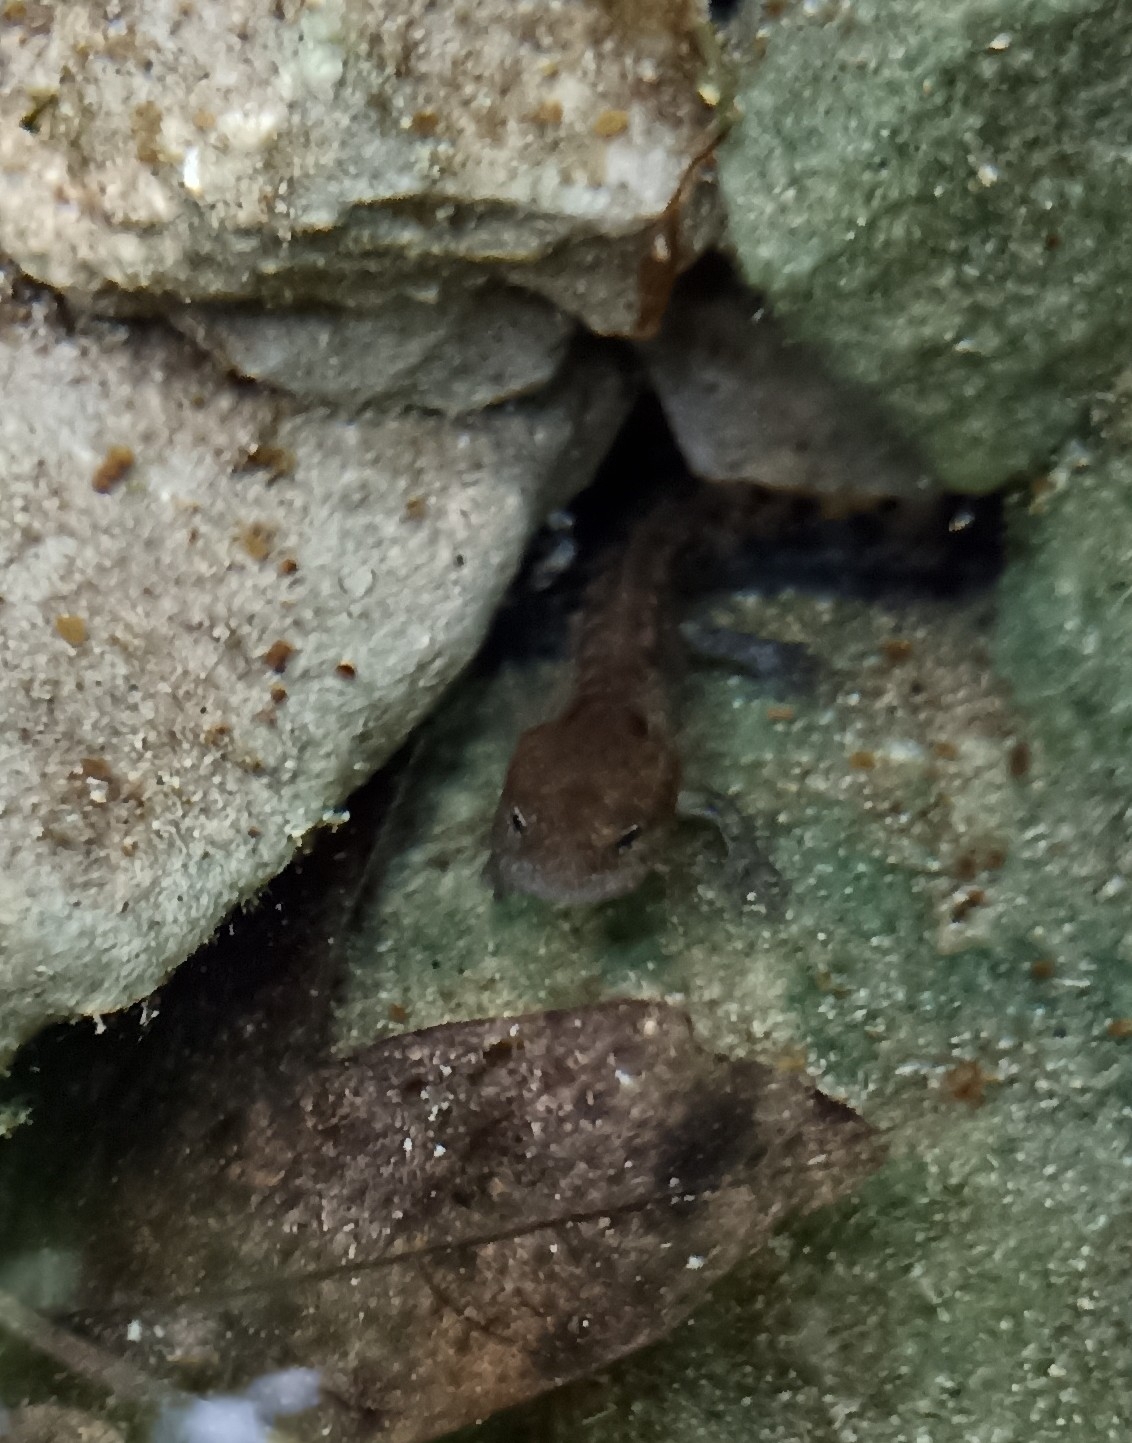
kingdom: Animalia
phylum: Chordata
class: Amphibia
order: Caudata
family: Salamandridae
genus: Salamandra
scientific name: Salamandra salamandra
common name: Fire salamander
